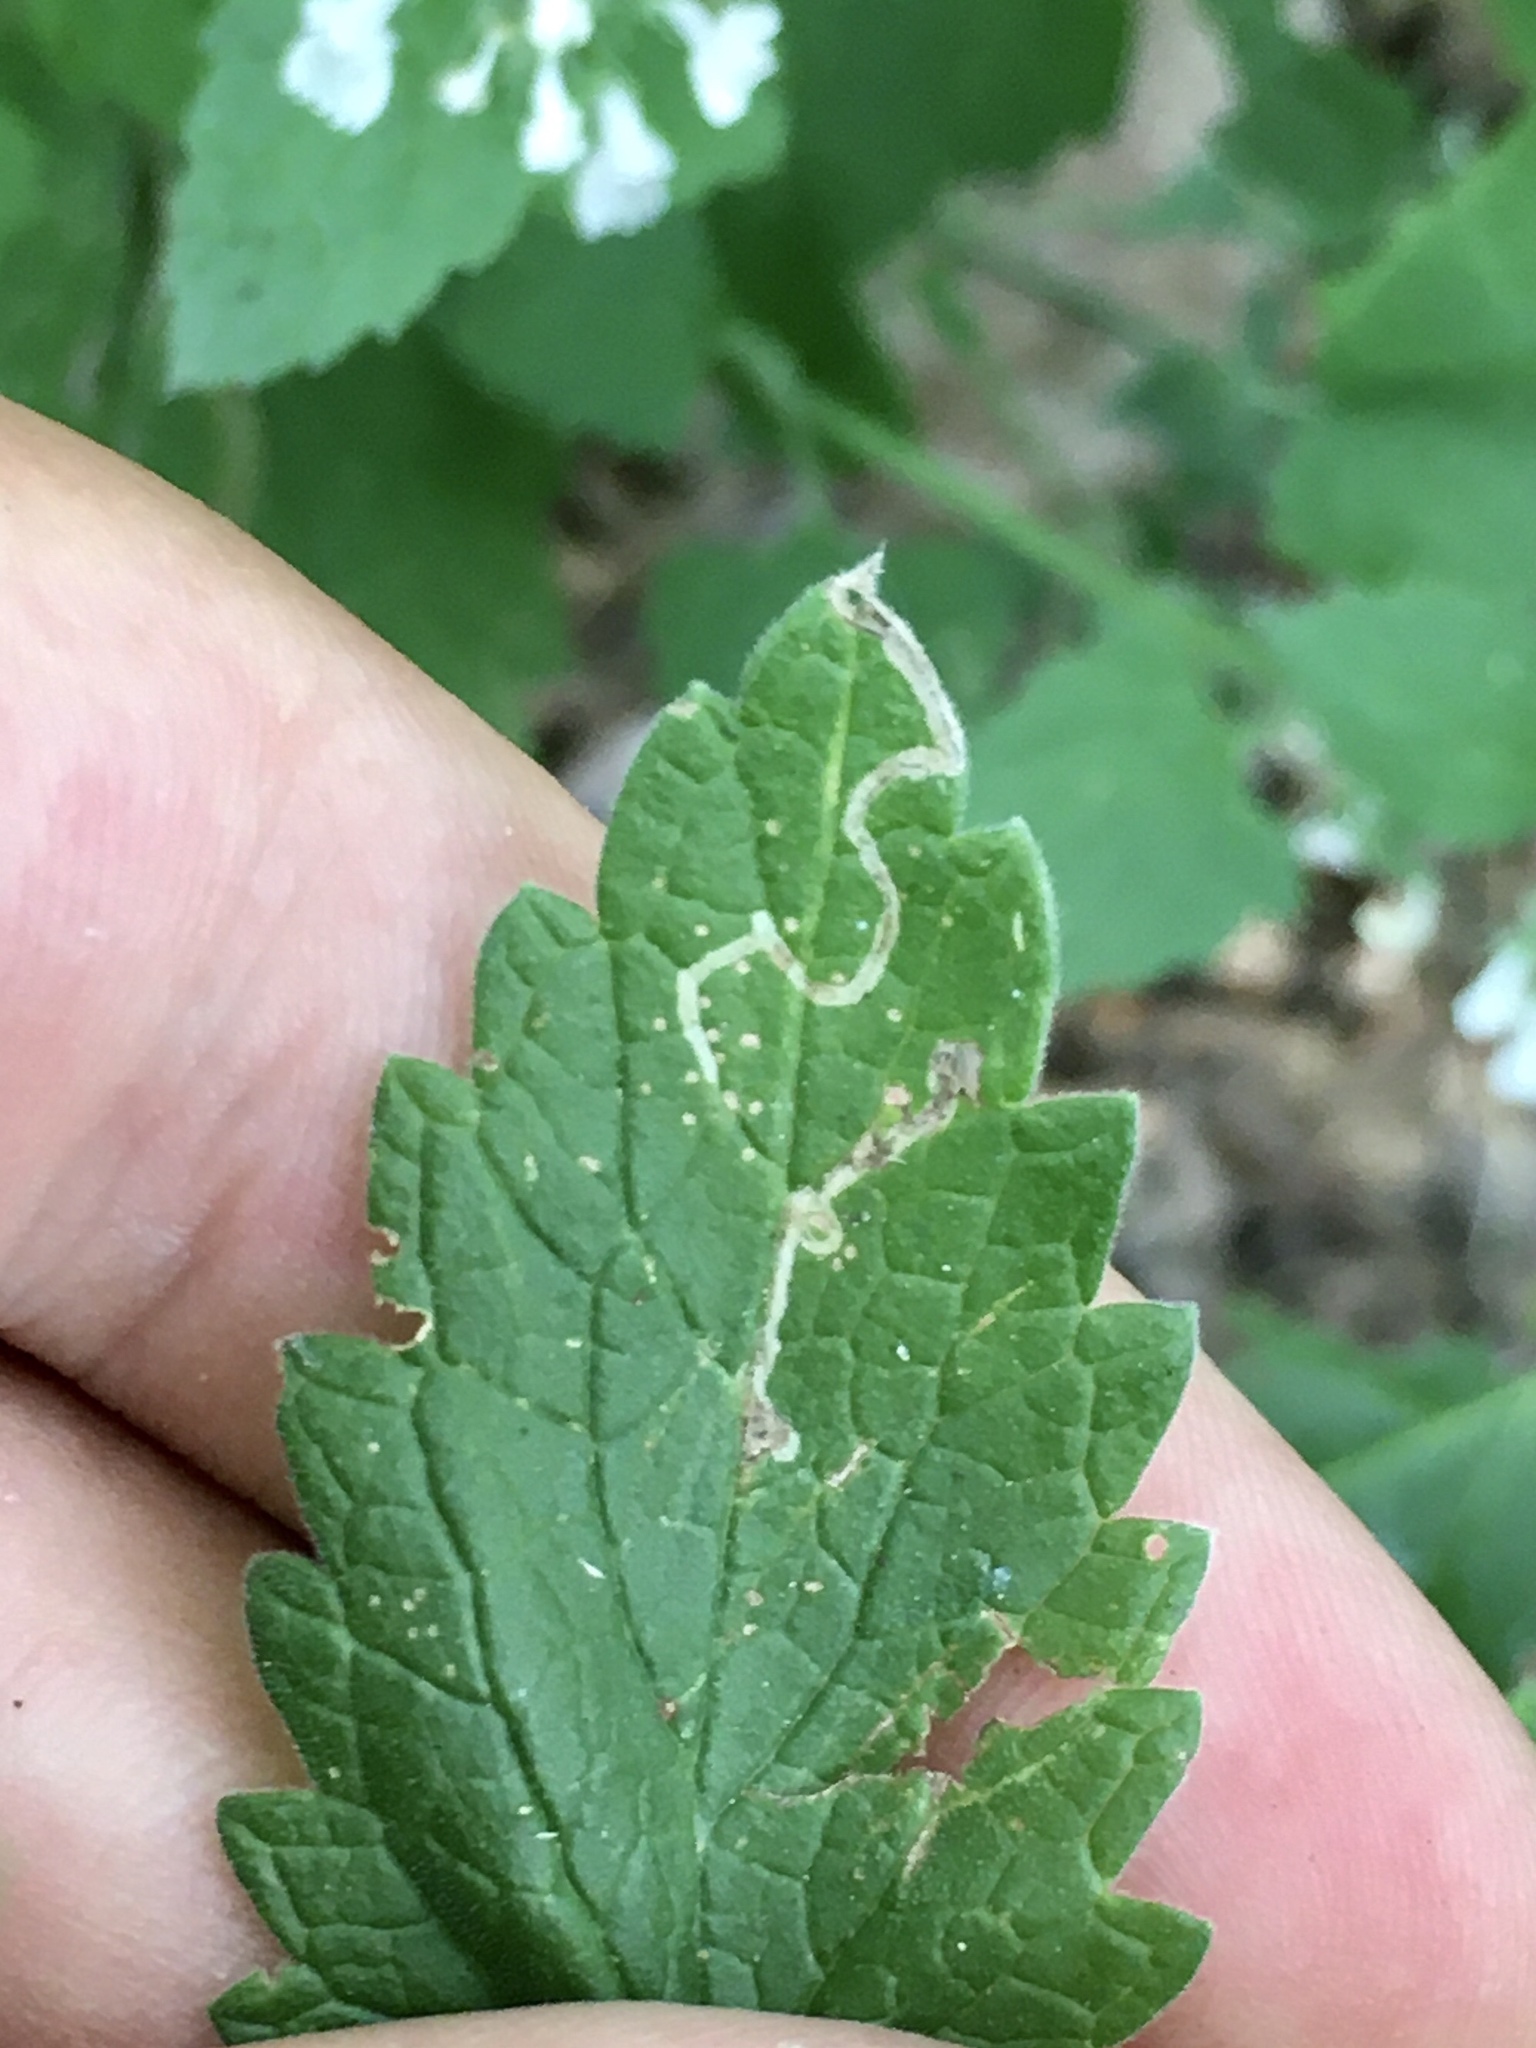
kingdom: Animalia
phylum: Arthropoda
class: Insecta
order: Diptera
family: Agromyzidae
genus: Phytomyza
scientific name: Phytomyza nepetae
